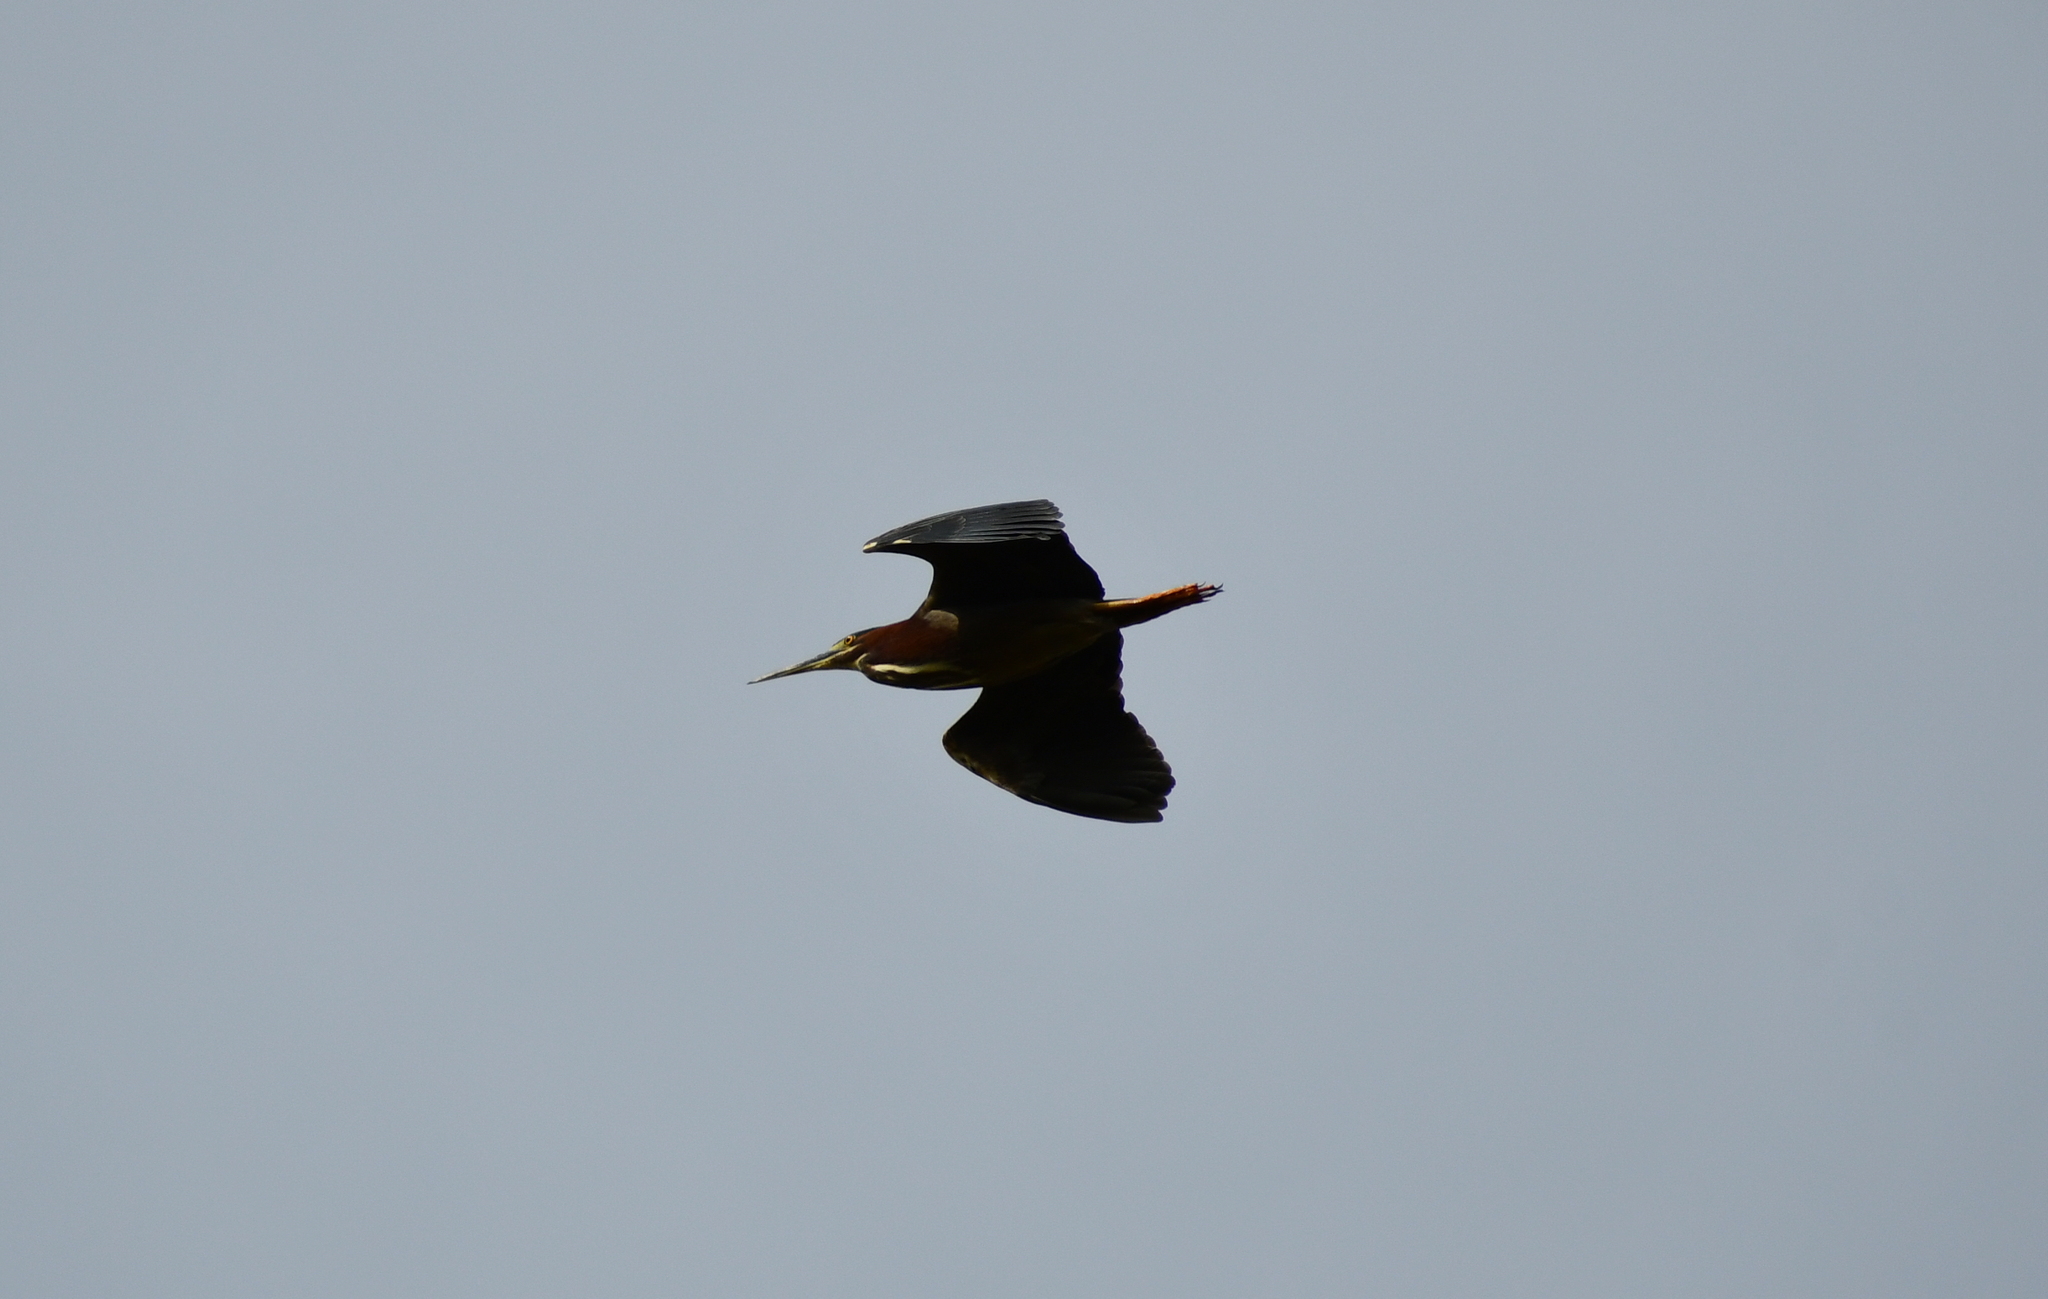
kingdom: Animalia
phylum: Chordata
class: Aves
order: Pelecaniformes
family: Ardeidae
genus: Butorides
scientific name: Butorides virescens
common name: Green heron
